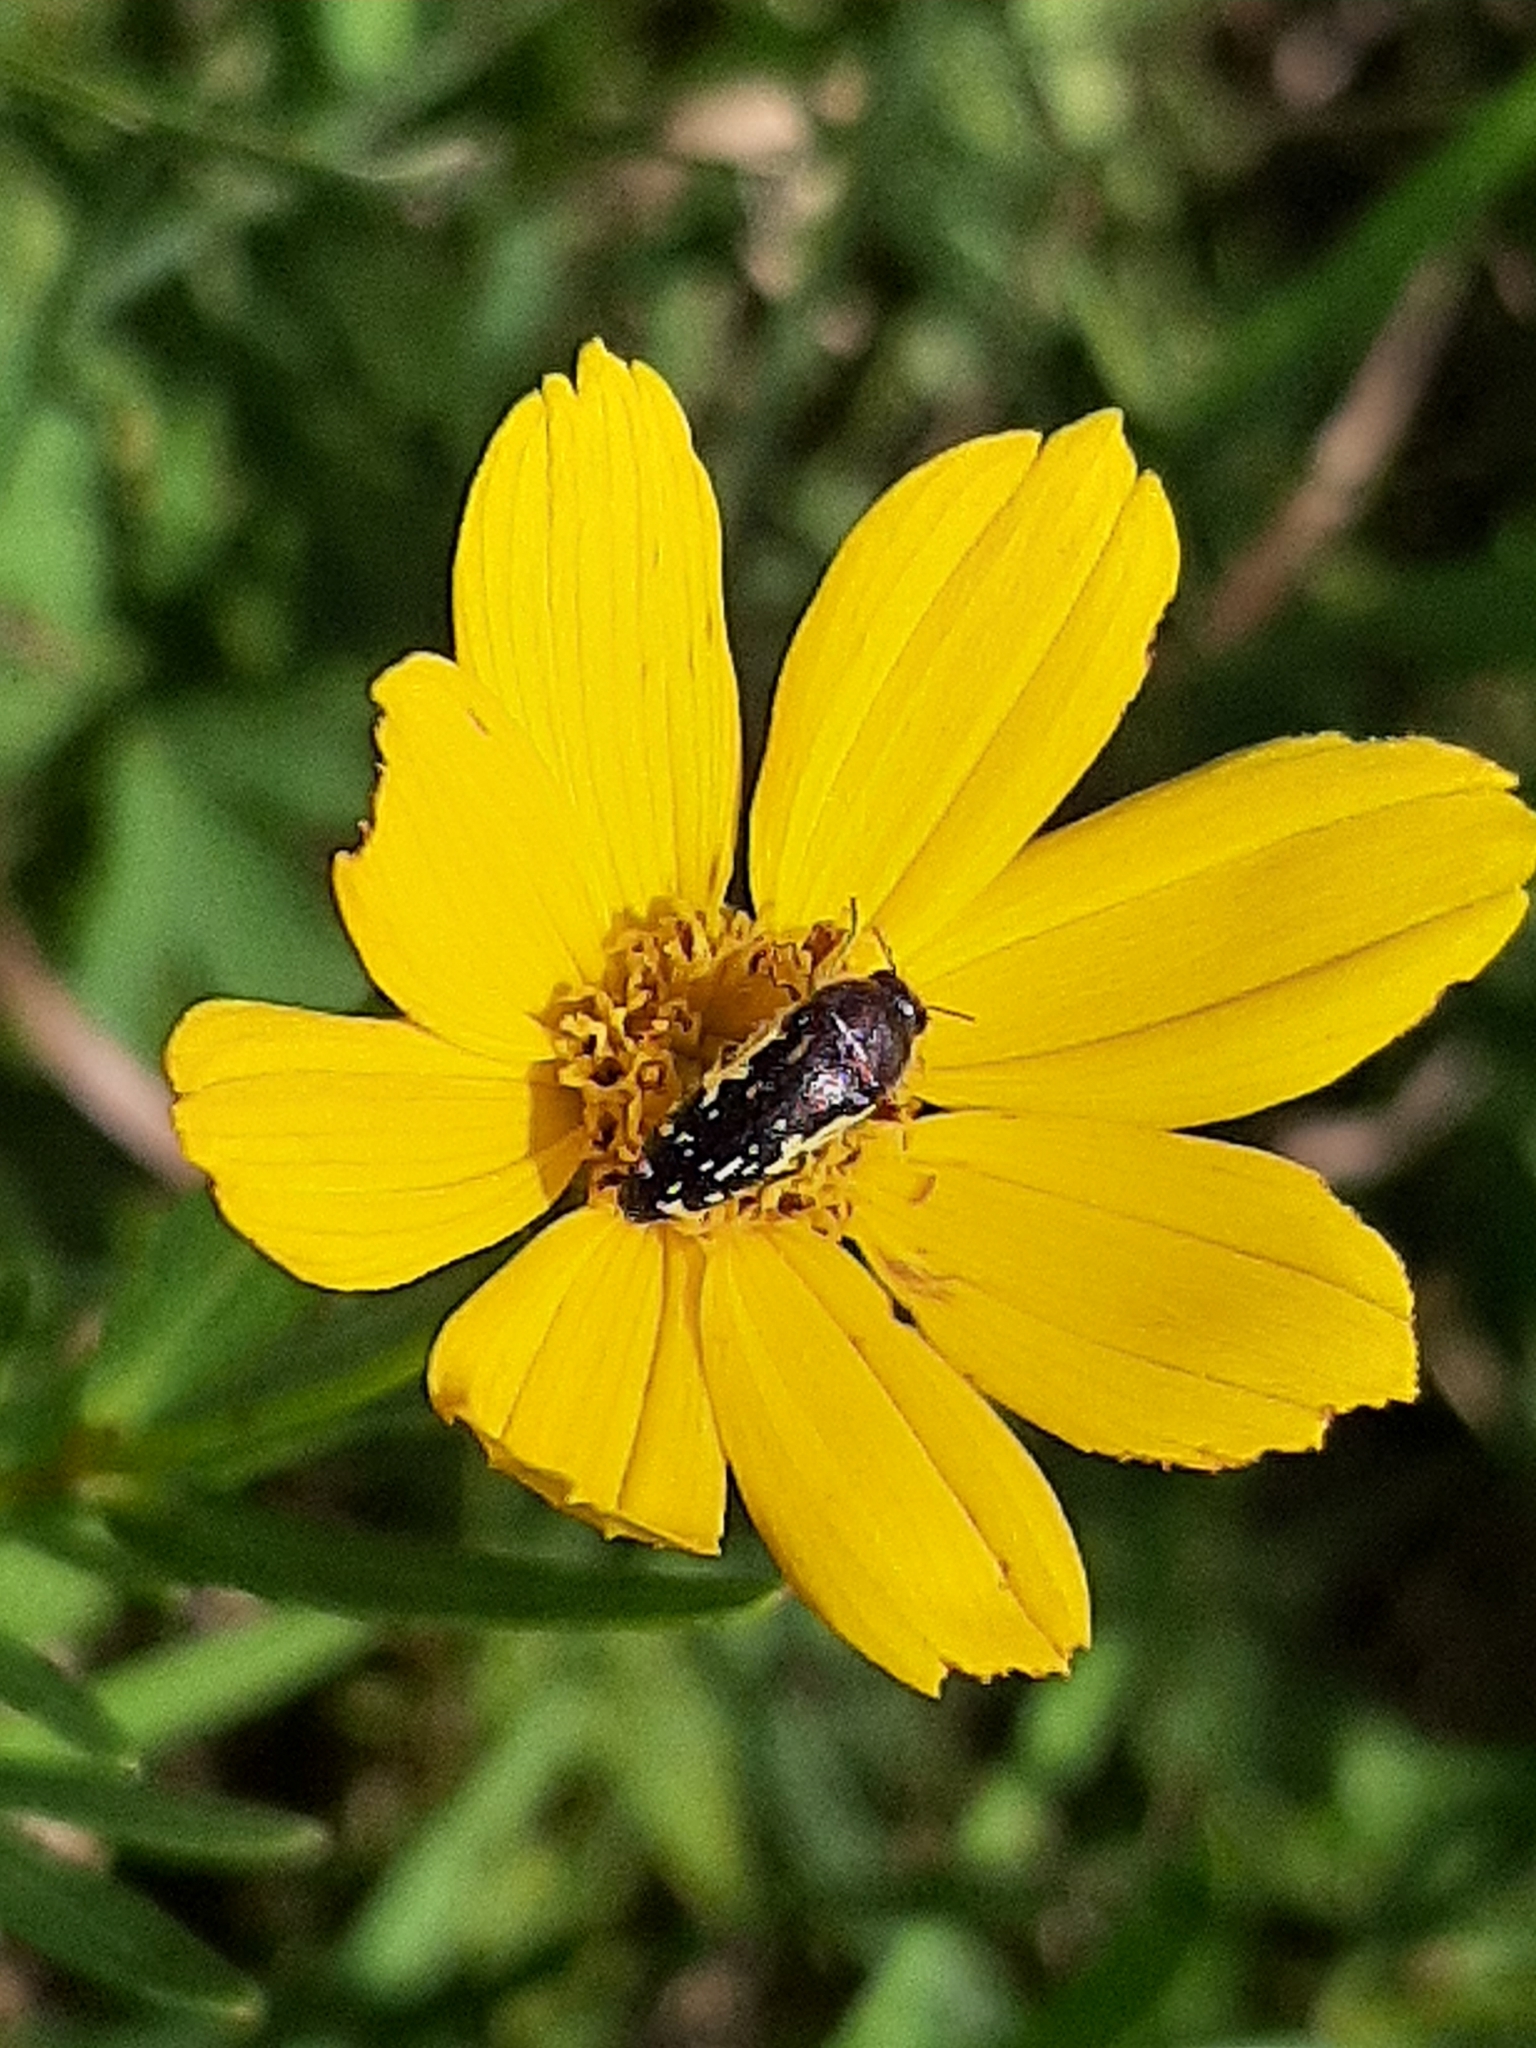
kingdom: Animalia
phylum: Arthropoda
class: Insecta
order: Coleoptera
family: Buprestidae
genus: Acmaeodera
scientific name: Acmaeodera pulchella
